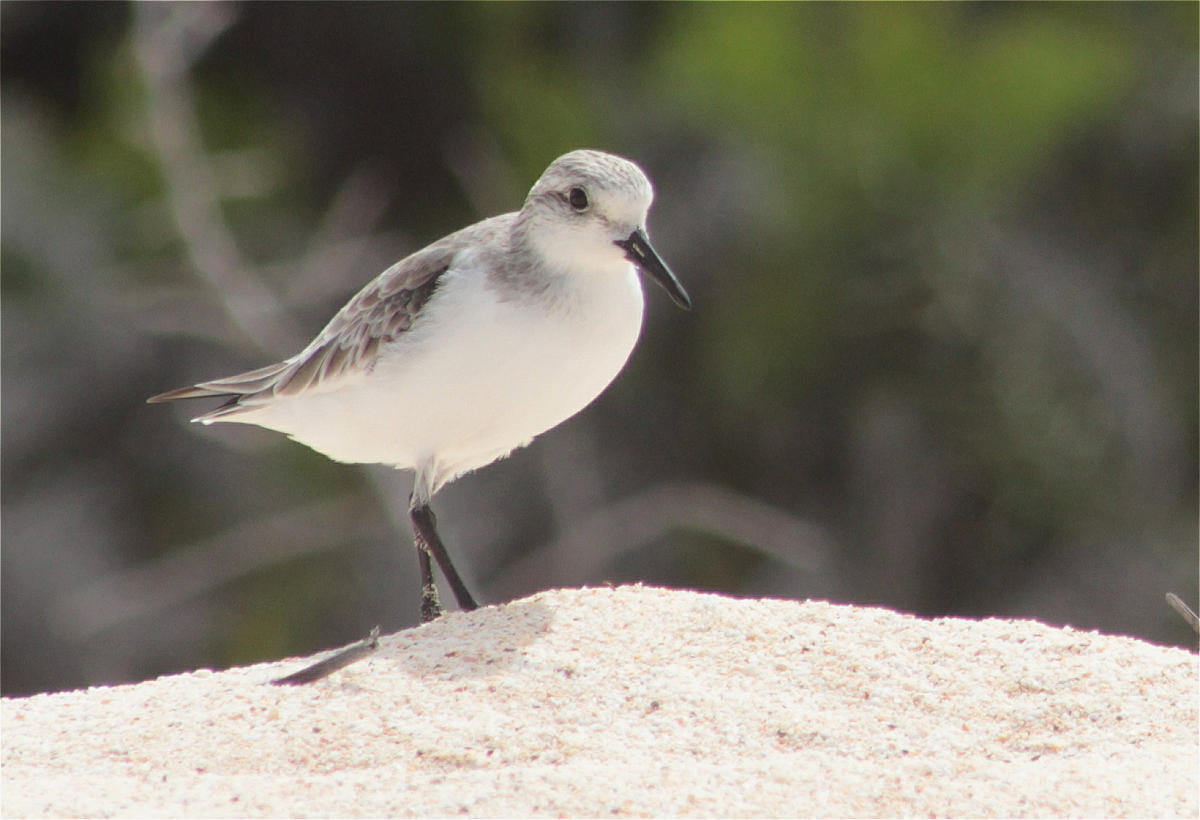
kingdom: Animalia
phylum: Chordata
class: Aves
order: Charadriiformes
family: Scolopacidae
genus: Calidris
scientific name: Calidris alba
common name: Sanderling
